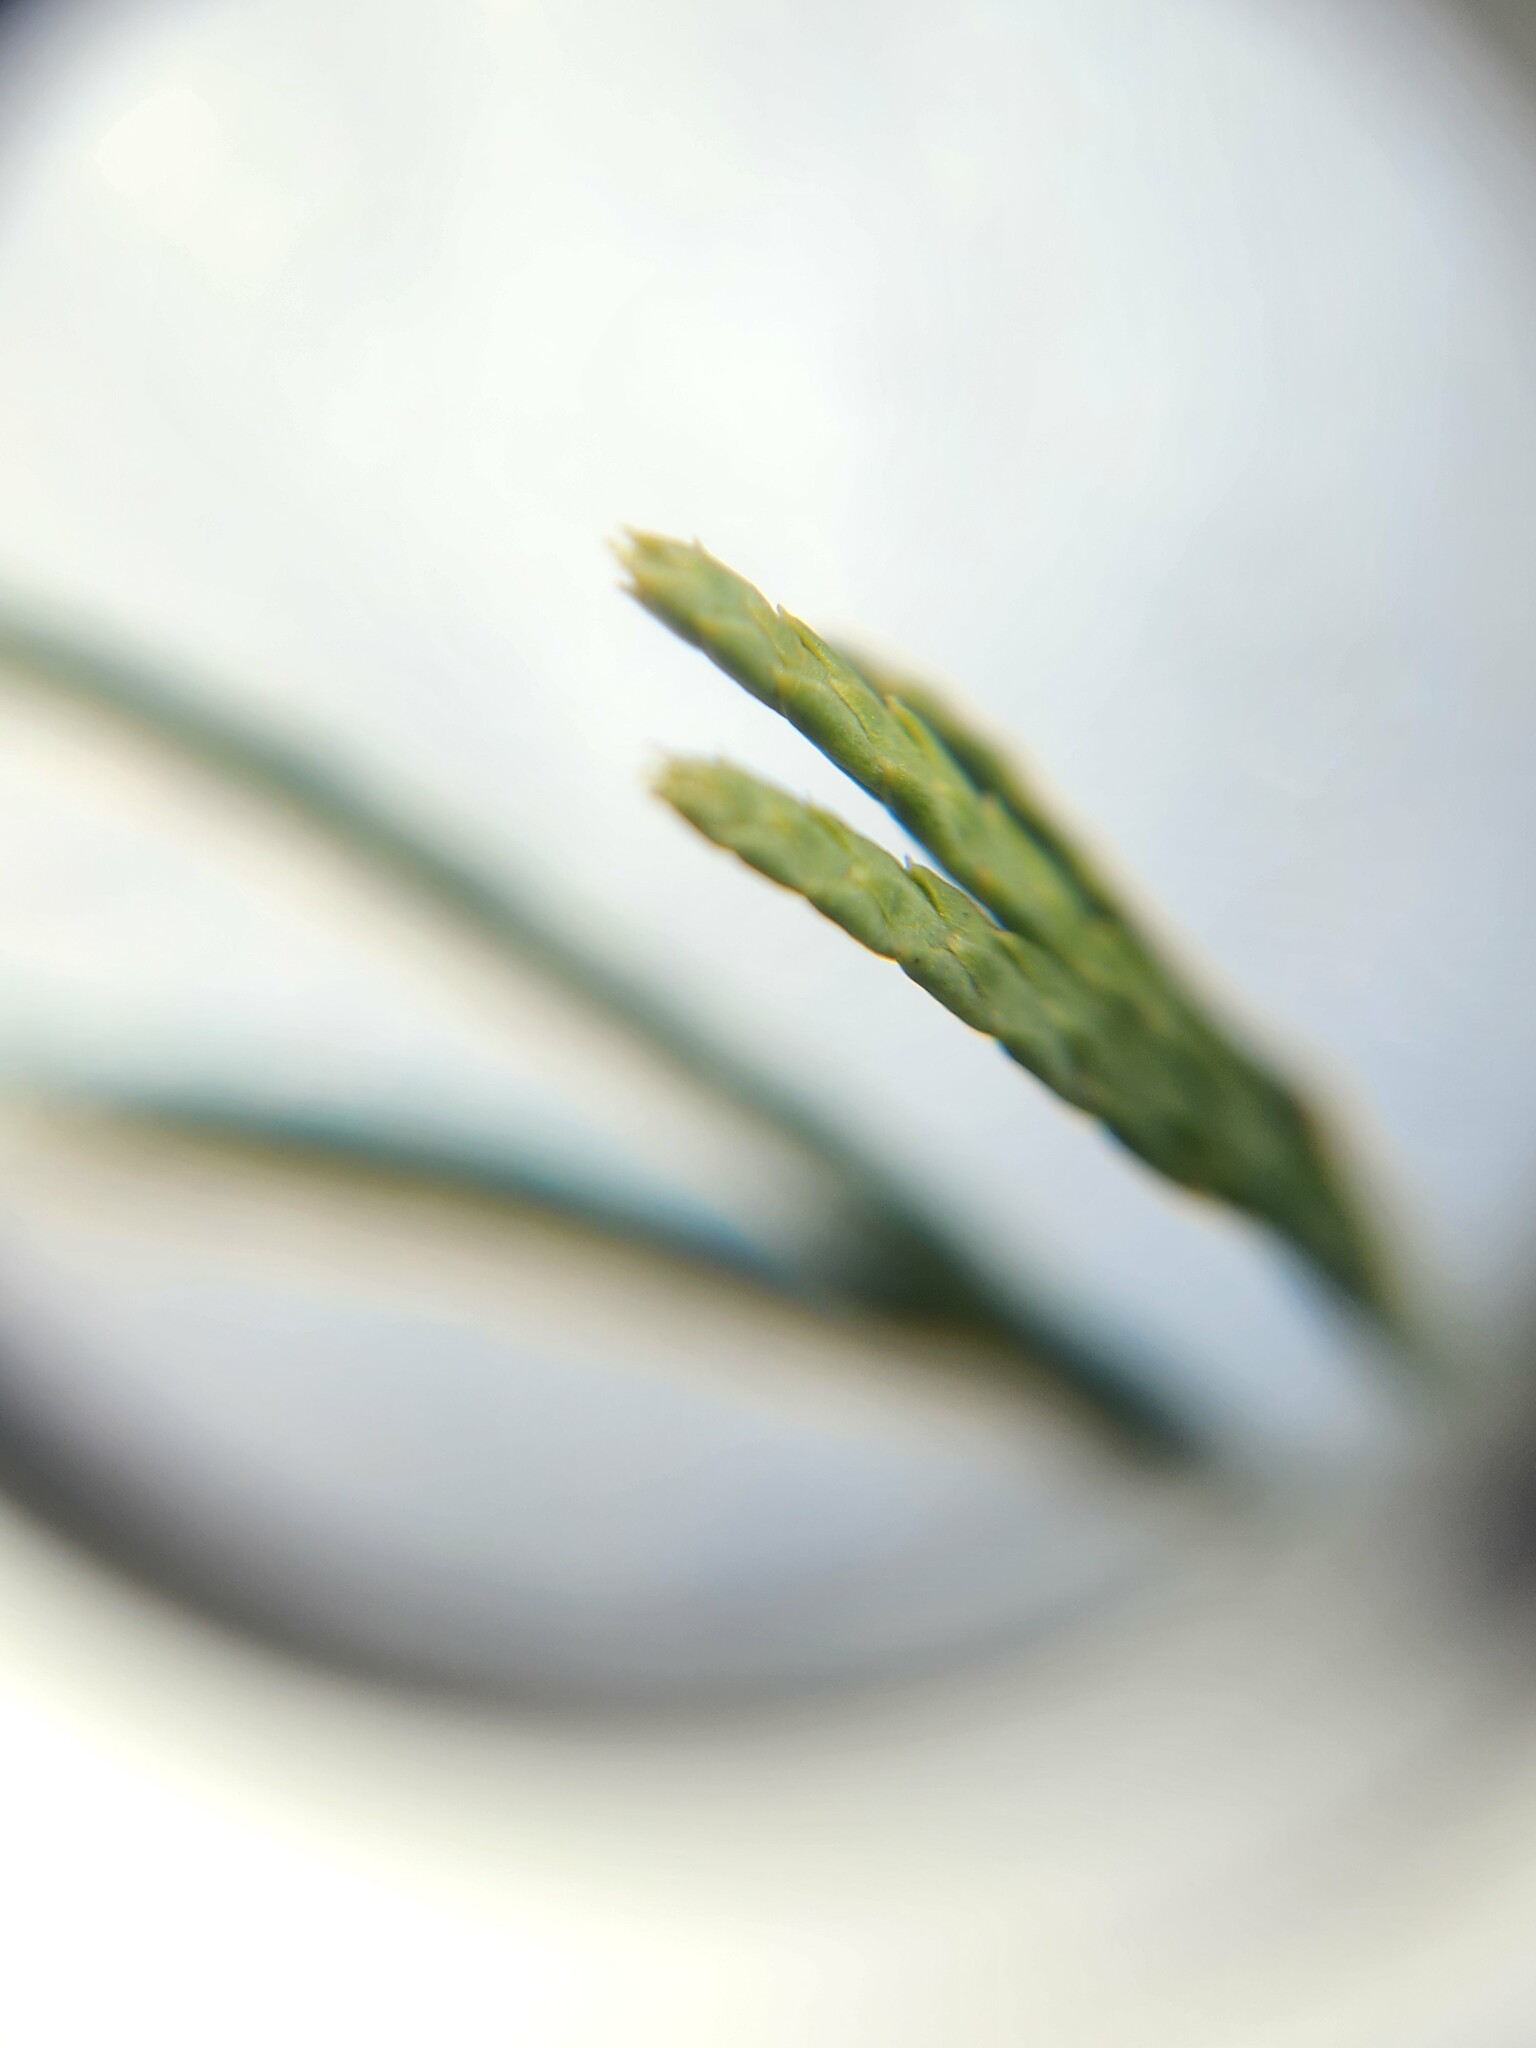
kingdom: Plantae
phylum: Tracheophyta
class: Lycopodiopsida
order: Lycopodiales
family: Lycopodiaceae
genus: Diphasiastrum
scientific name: Diphasiastrum tristachyum
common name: Blue ground-cedar
